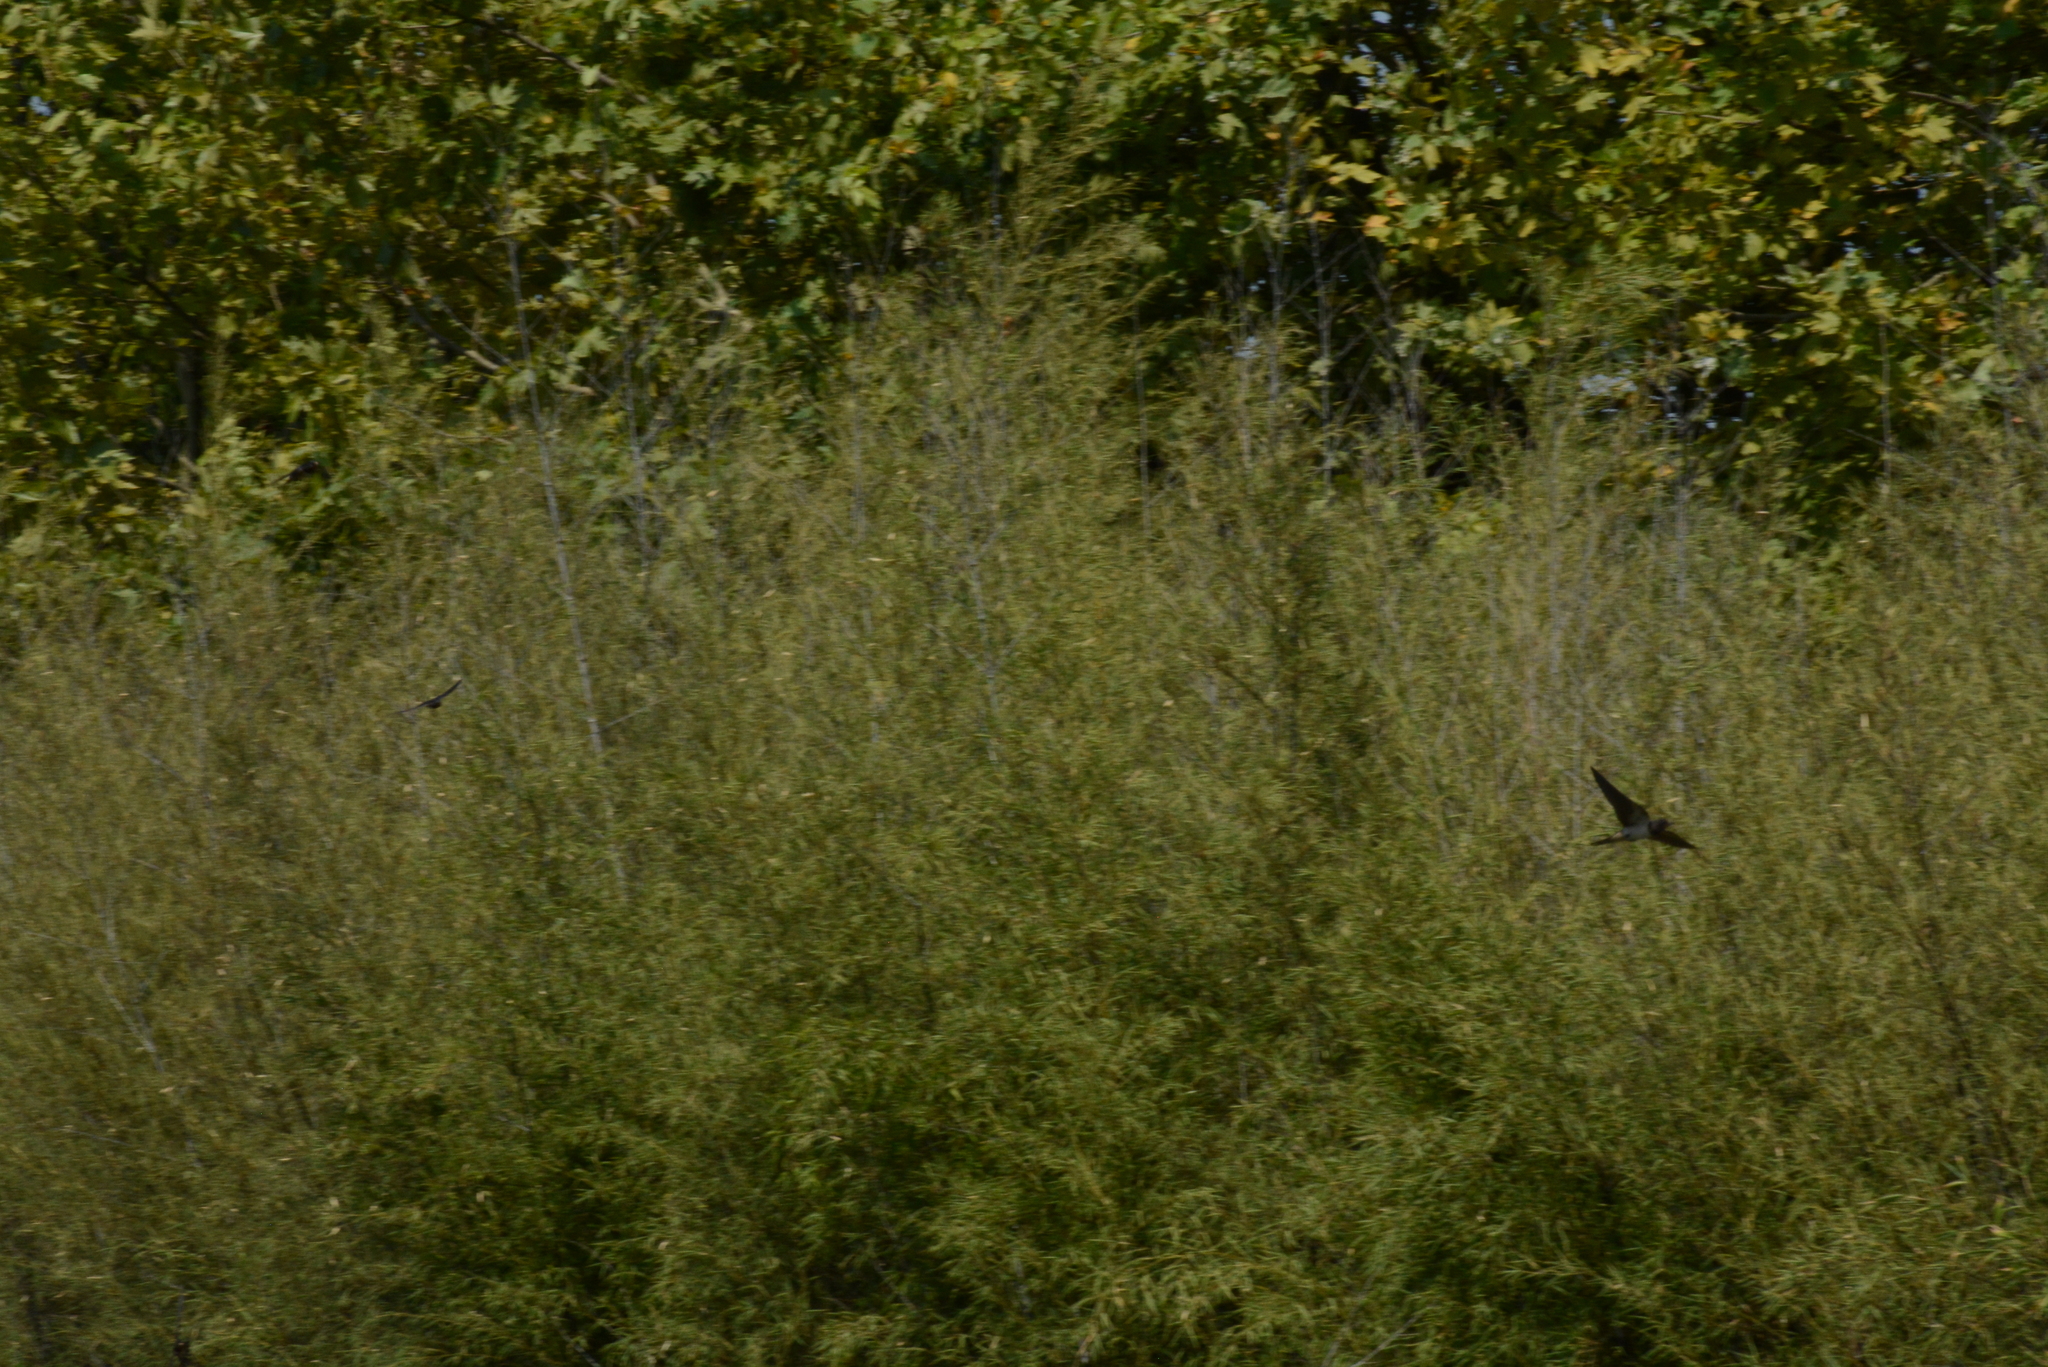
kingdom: Animalia
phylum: Chordata
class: Aves
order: Passeriformes
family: Hirundinidae
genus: Hirundo
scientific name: Hirundo rustica
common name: Barn swallow
